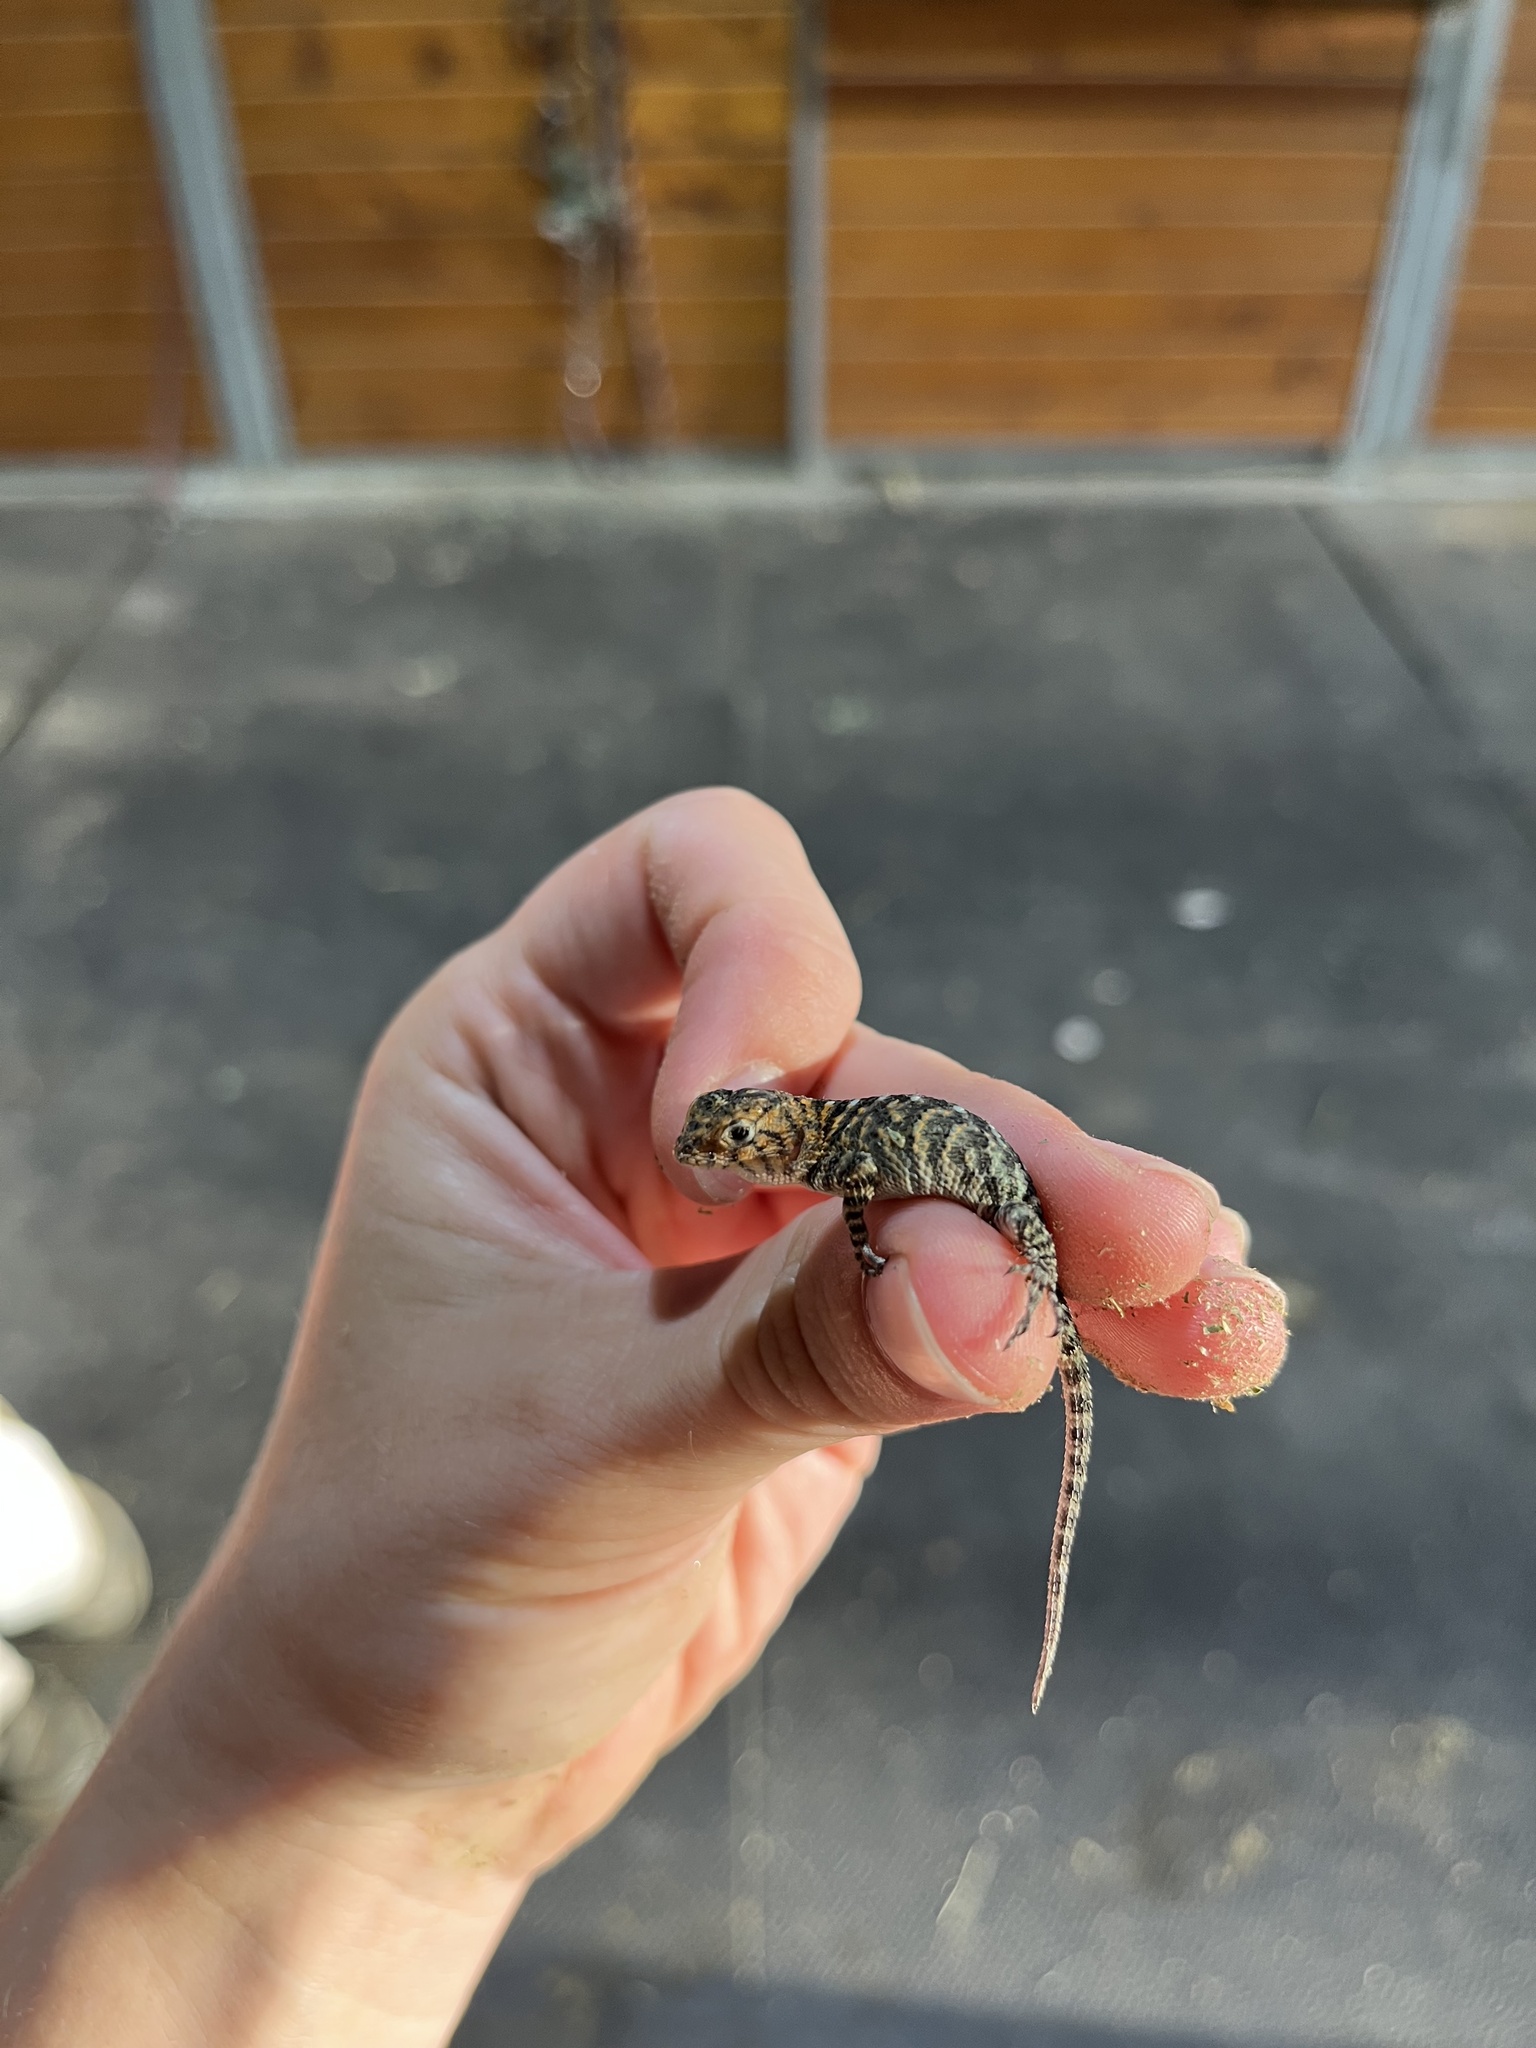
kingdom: Animalia
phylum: Chordata
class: Squamata
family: Phrynosomatidae
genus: Sceloporus
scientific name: Sceloporus orcutti
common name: Granite spiny lizard
